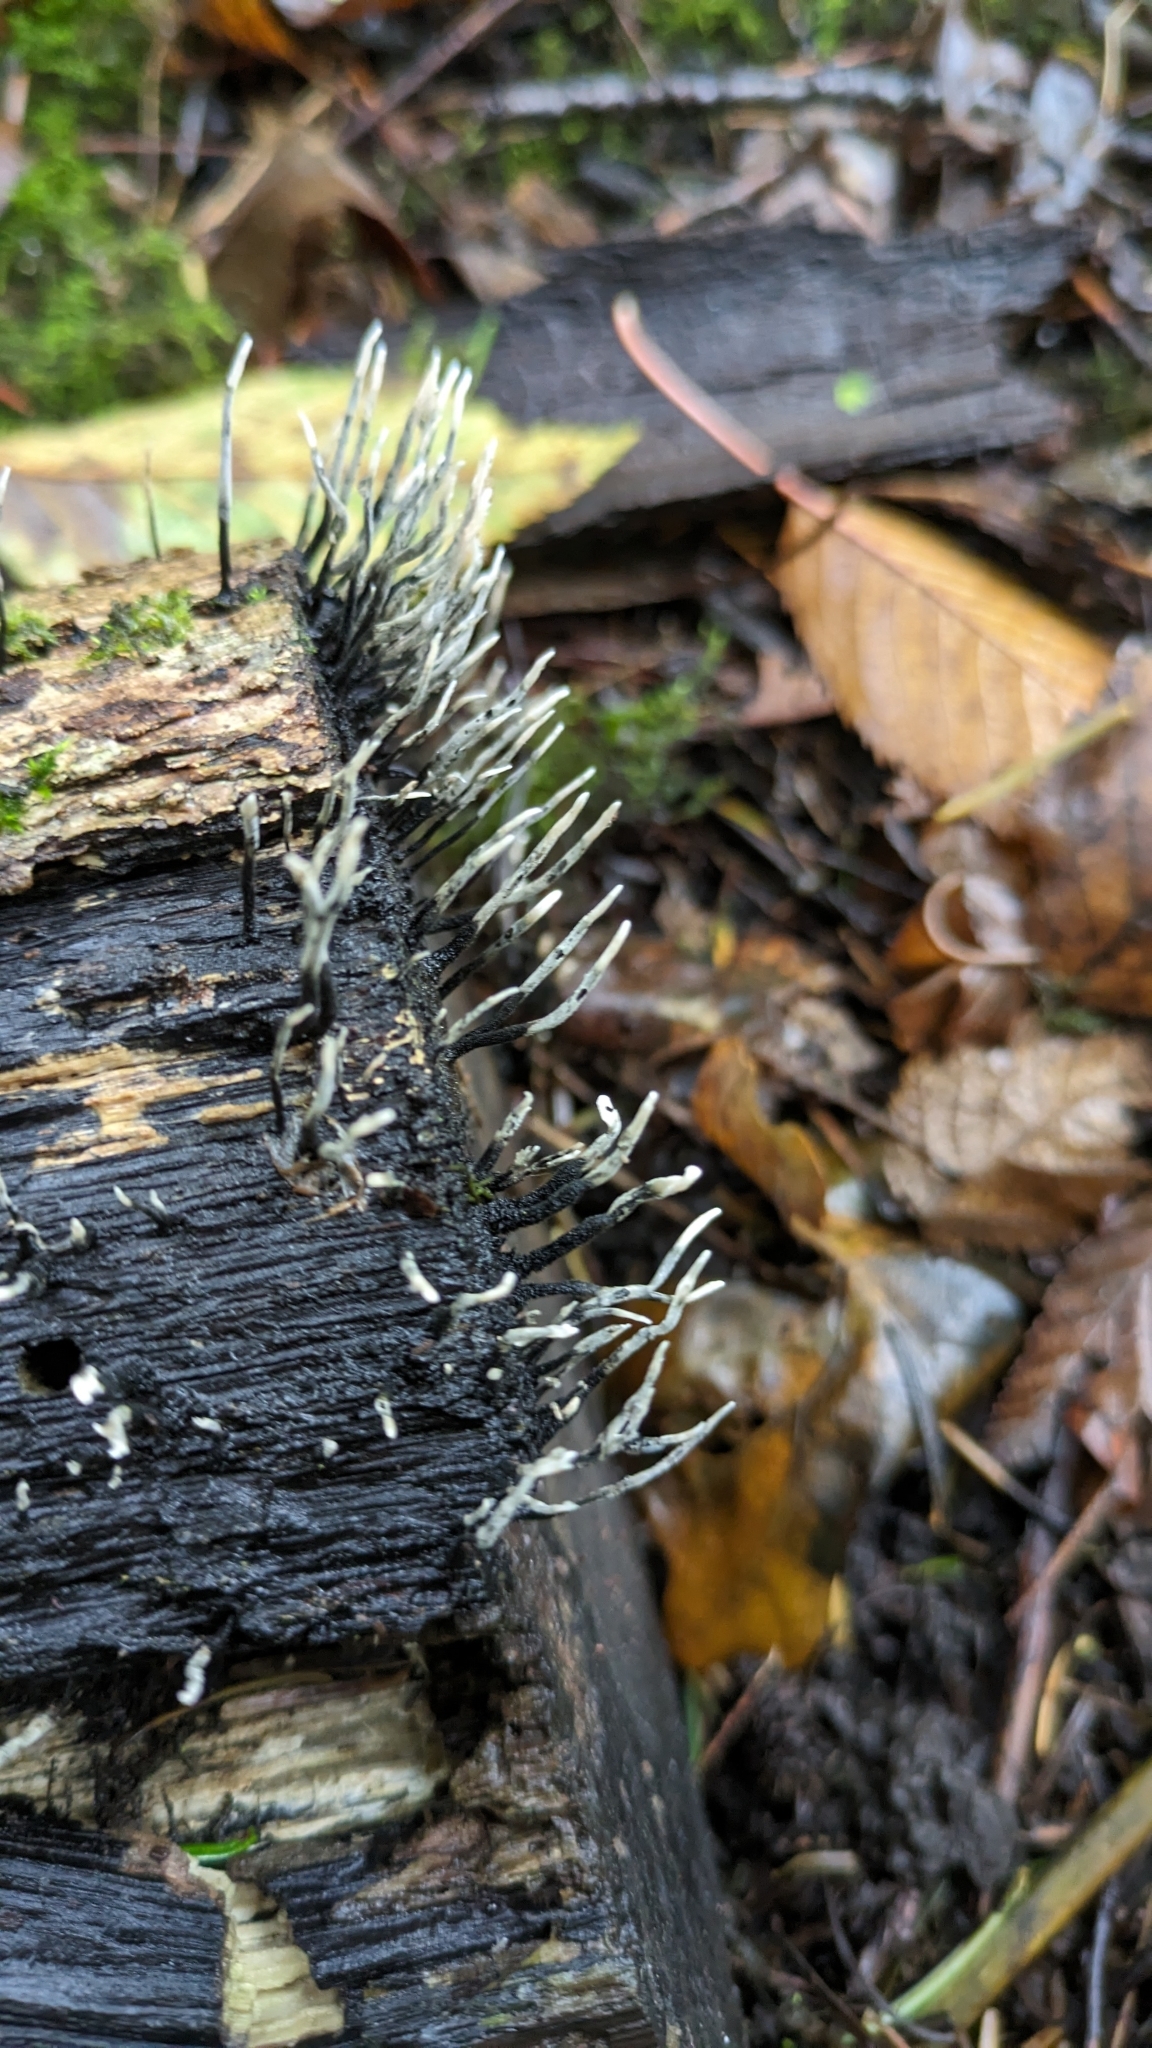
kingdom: Fungi
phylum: Ascomycota
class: Sordariomycetes
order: Xylariales
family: Xylariaceae
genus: Xylaria
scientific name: Xylaria hypoxylon
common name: Candle-snuff fungus
